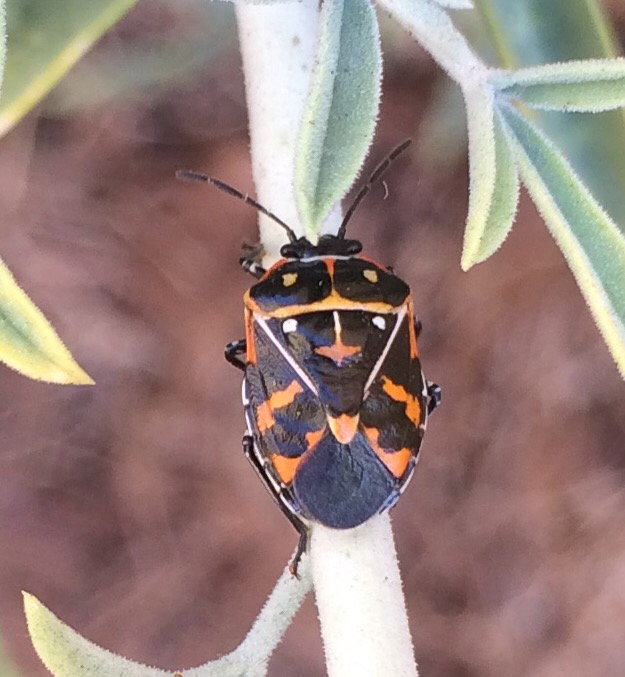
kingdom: Animalia
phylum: Arthropoda
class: Insecta
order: Hemiptera
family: Pentatomidae
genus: Murgantia
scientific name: Murgantia histrionica
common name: Harlequin bug
